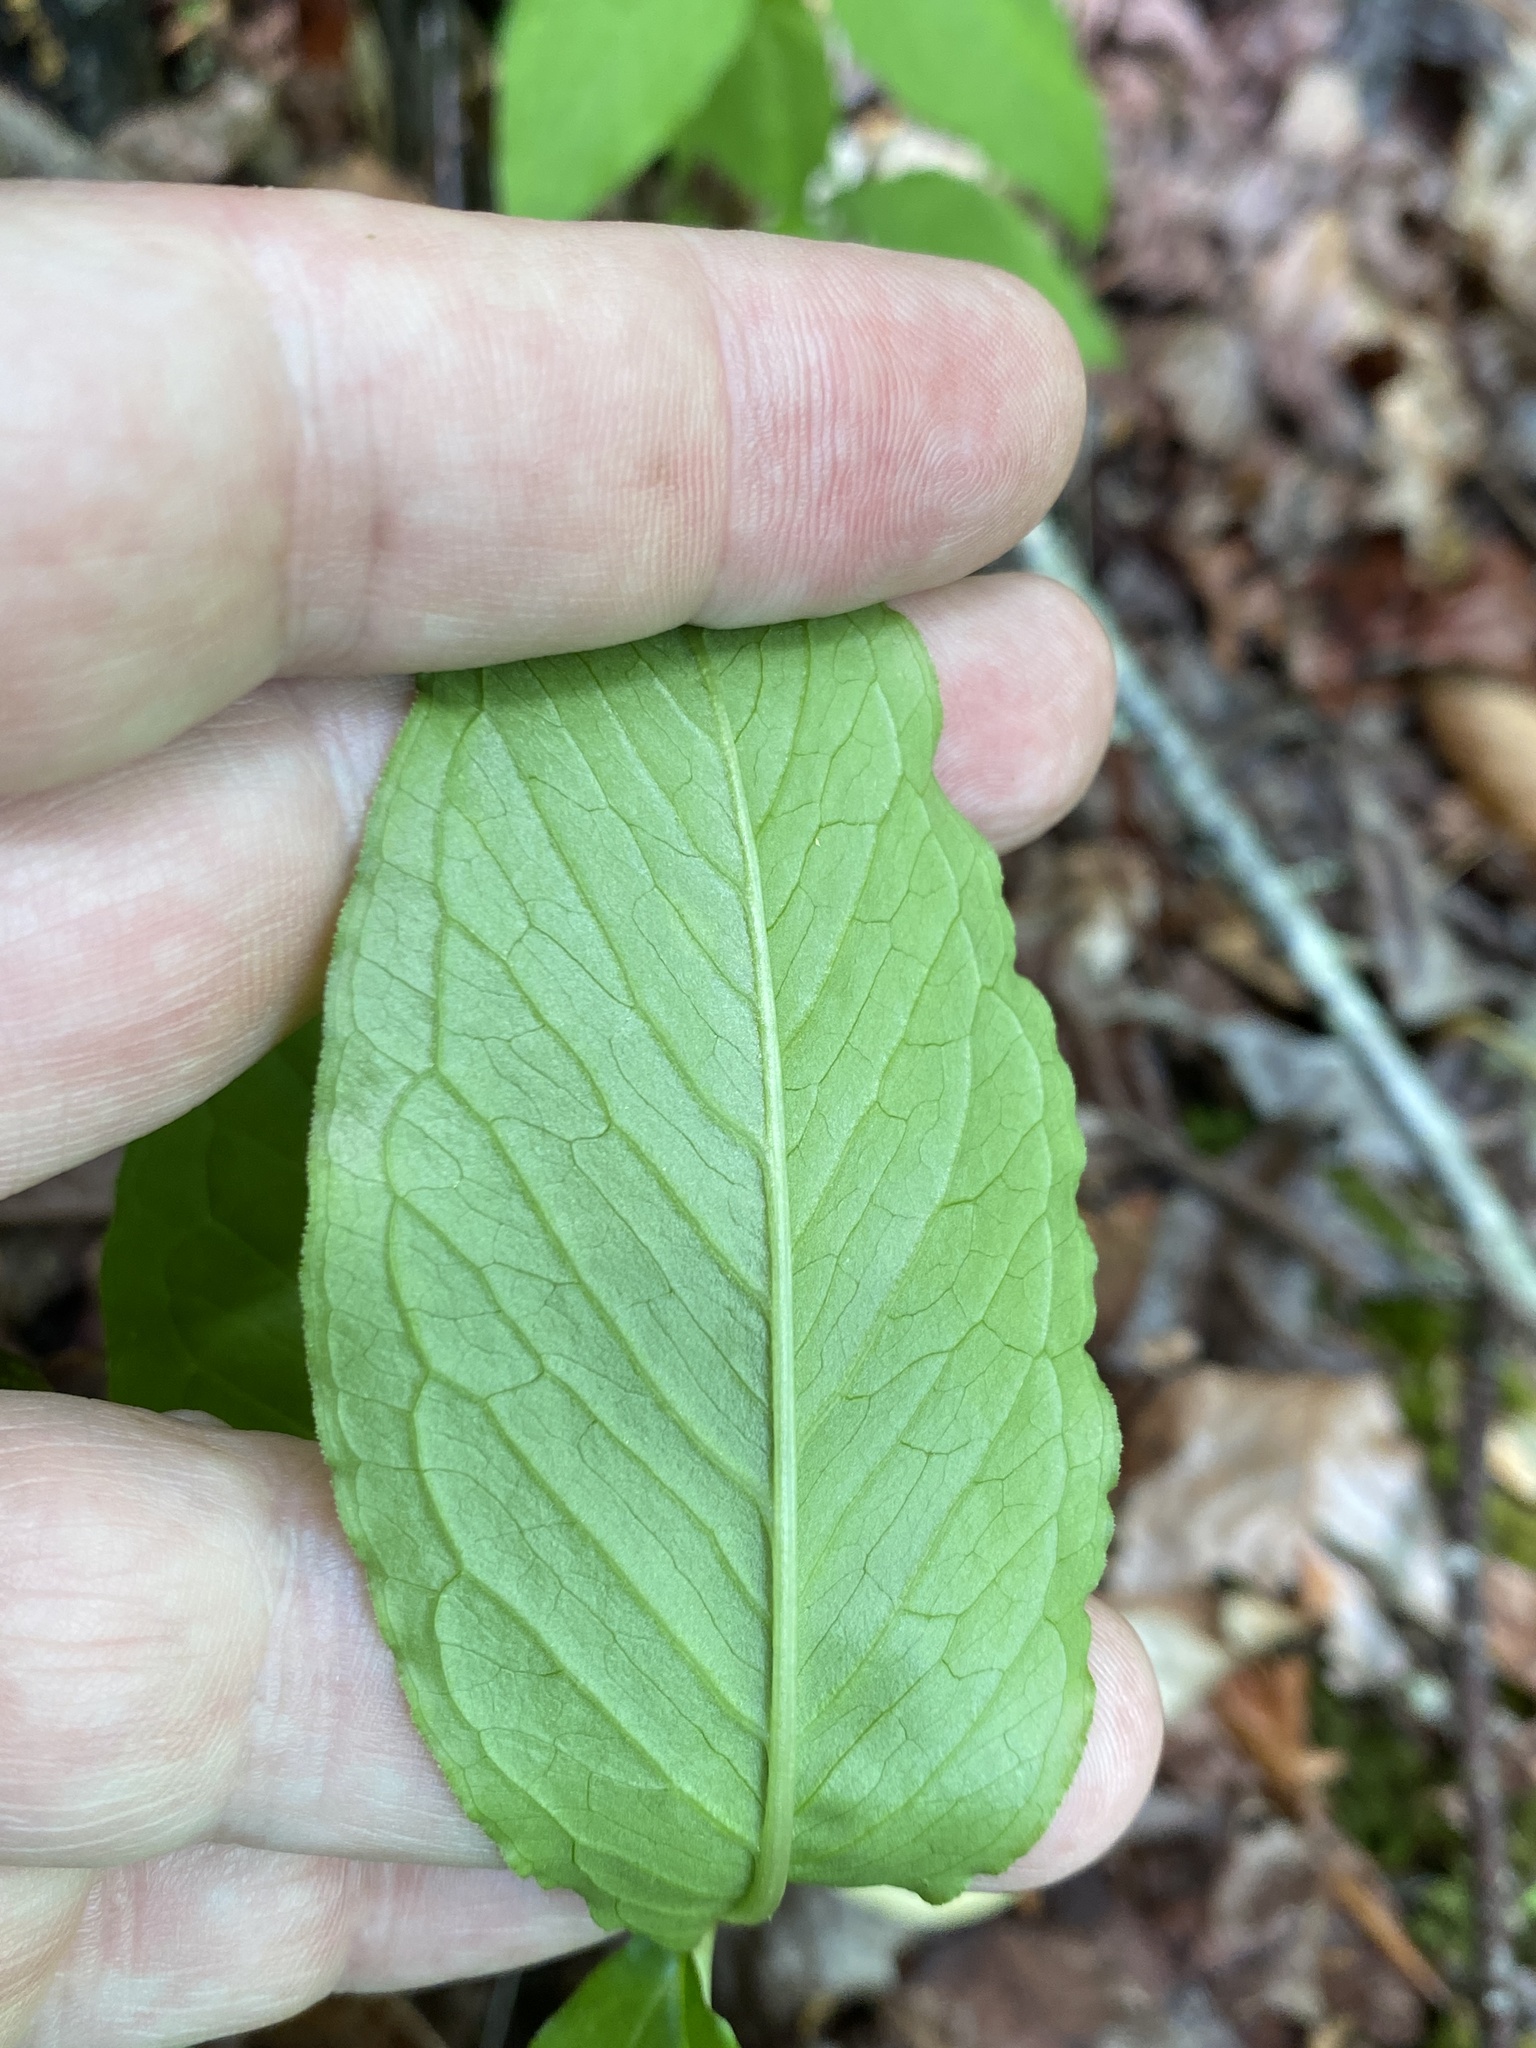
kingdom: Plantae
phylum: Tracheophyta
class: Liliopsida
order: Alismatales
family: Araceae
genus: Arisaema
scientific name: Arisaema pusillum
